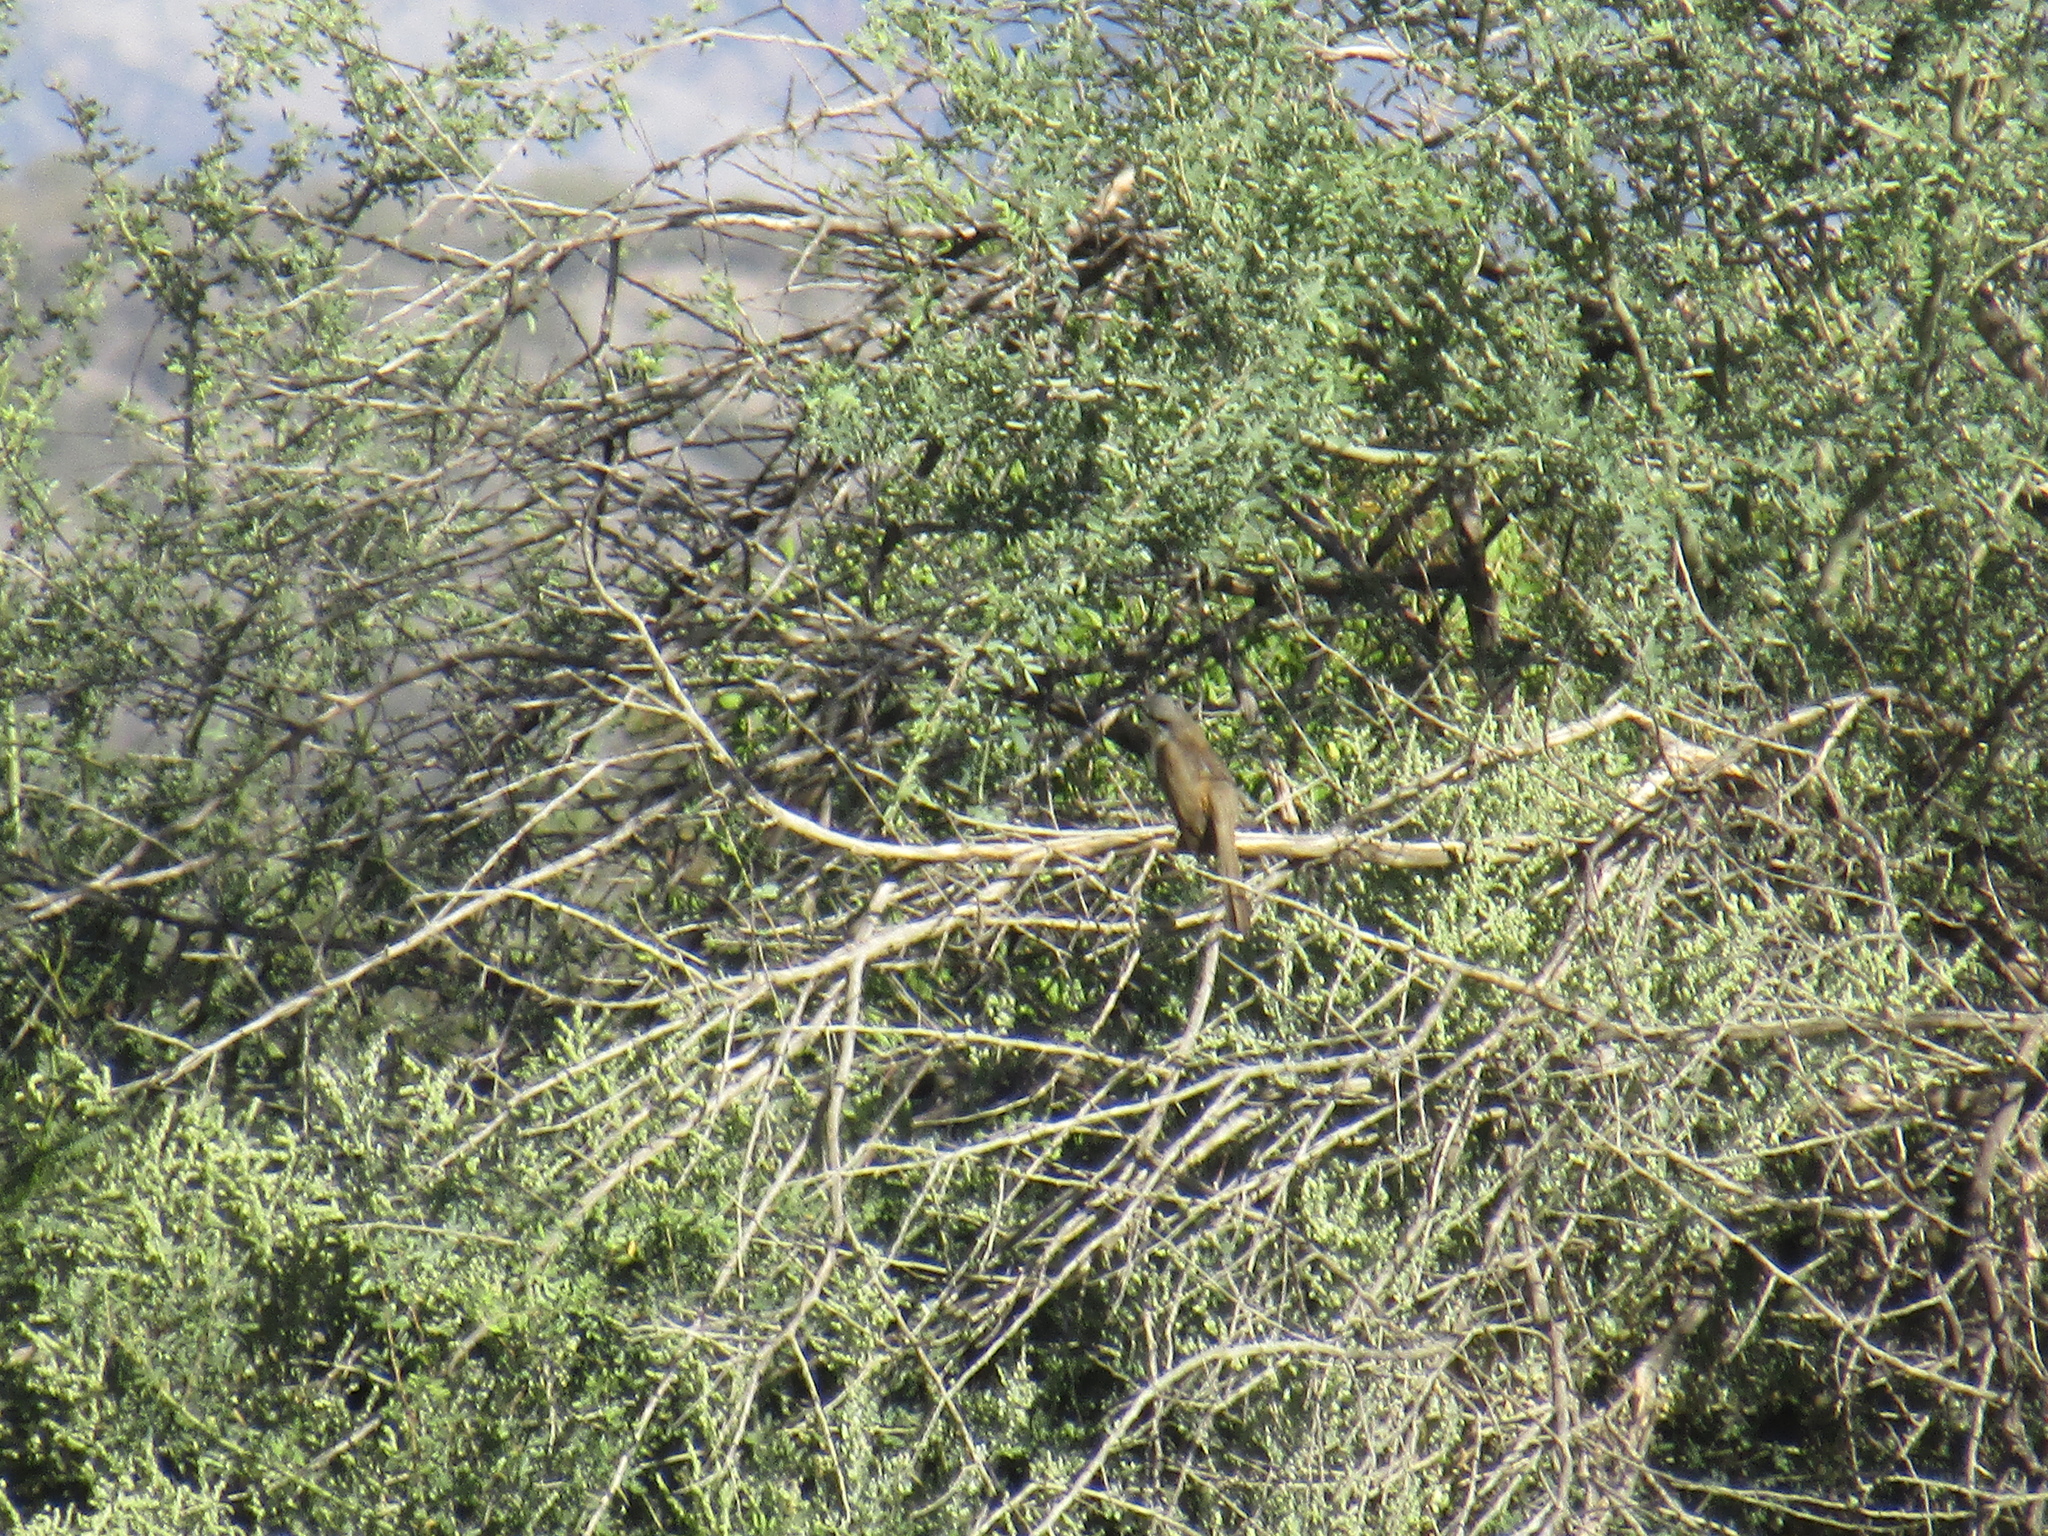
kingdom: Animalia
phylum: Chordata
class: Aves
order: Cuculiformes
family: Cuculidae
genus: Coccyzus
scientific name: Coccyzus melacoryphus
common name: Dark-billed cuckoo
